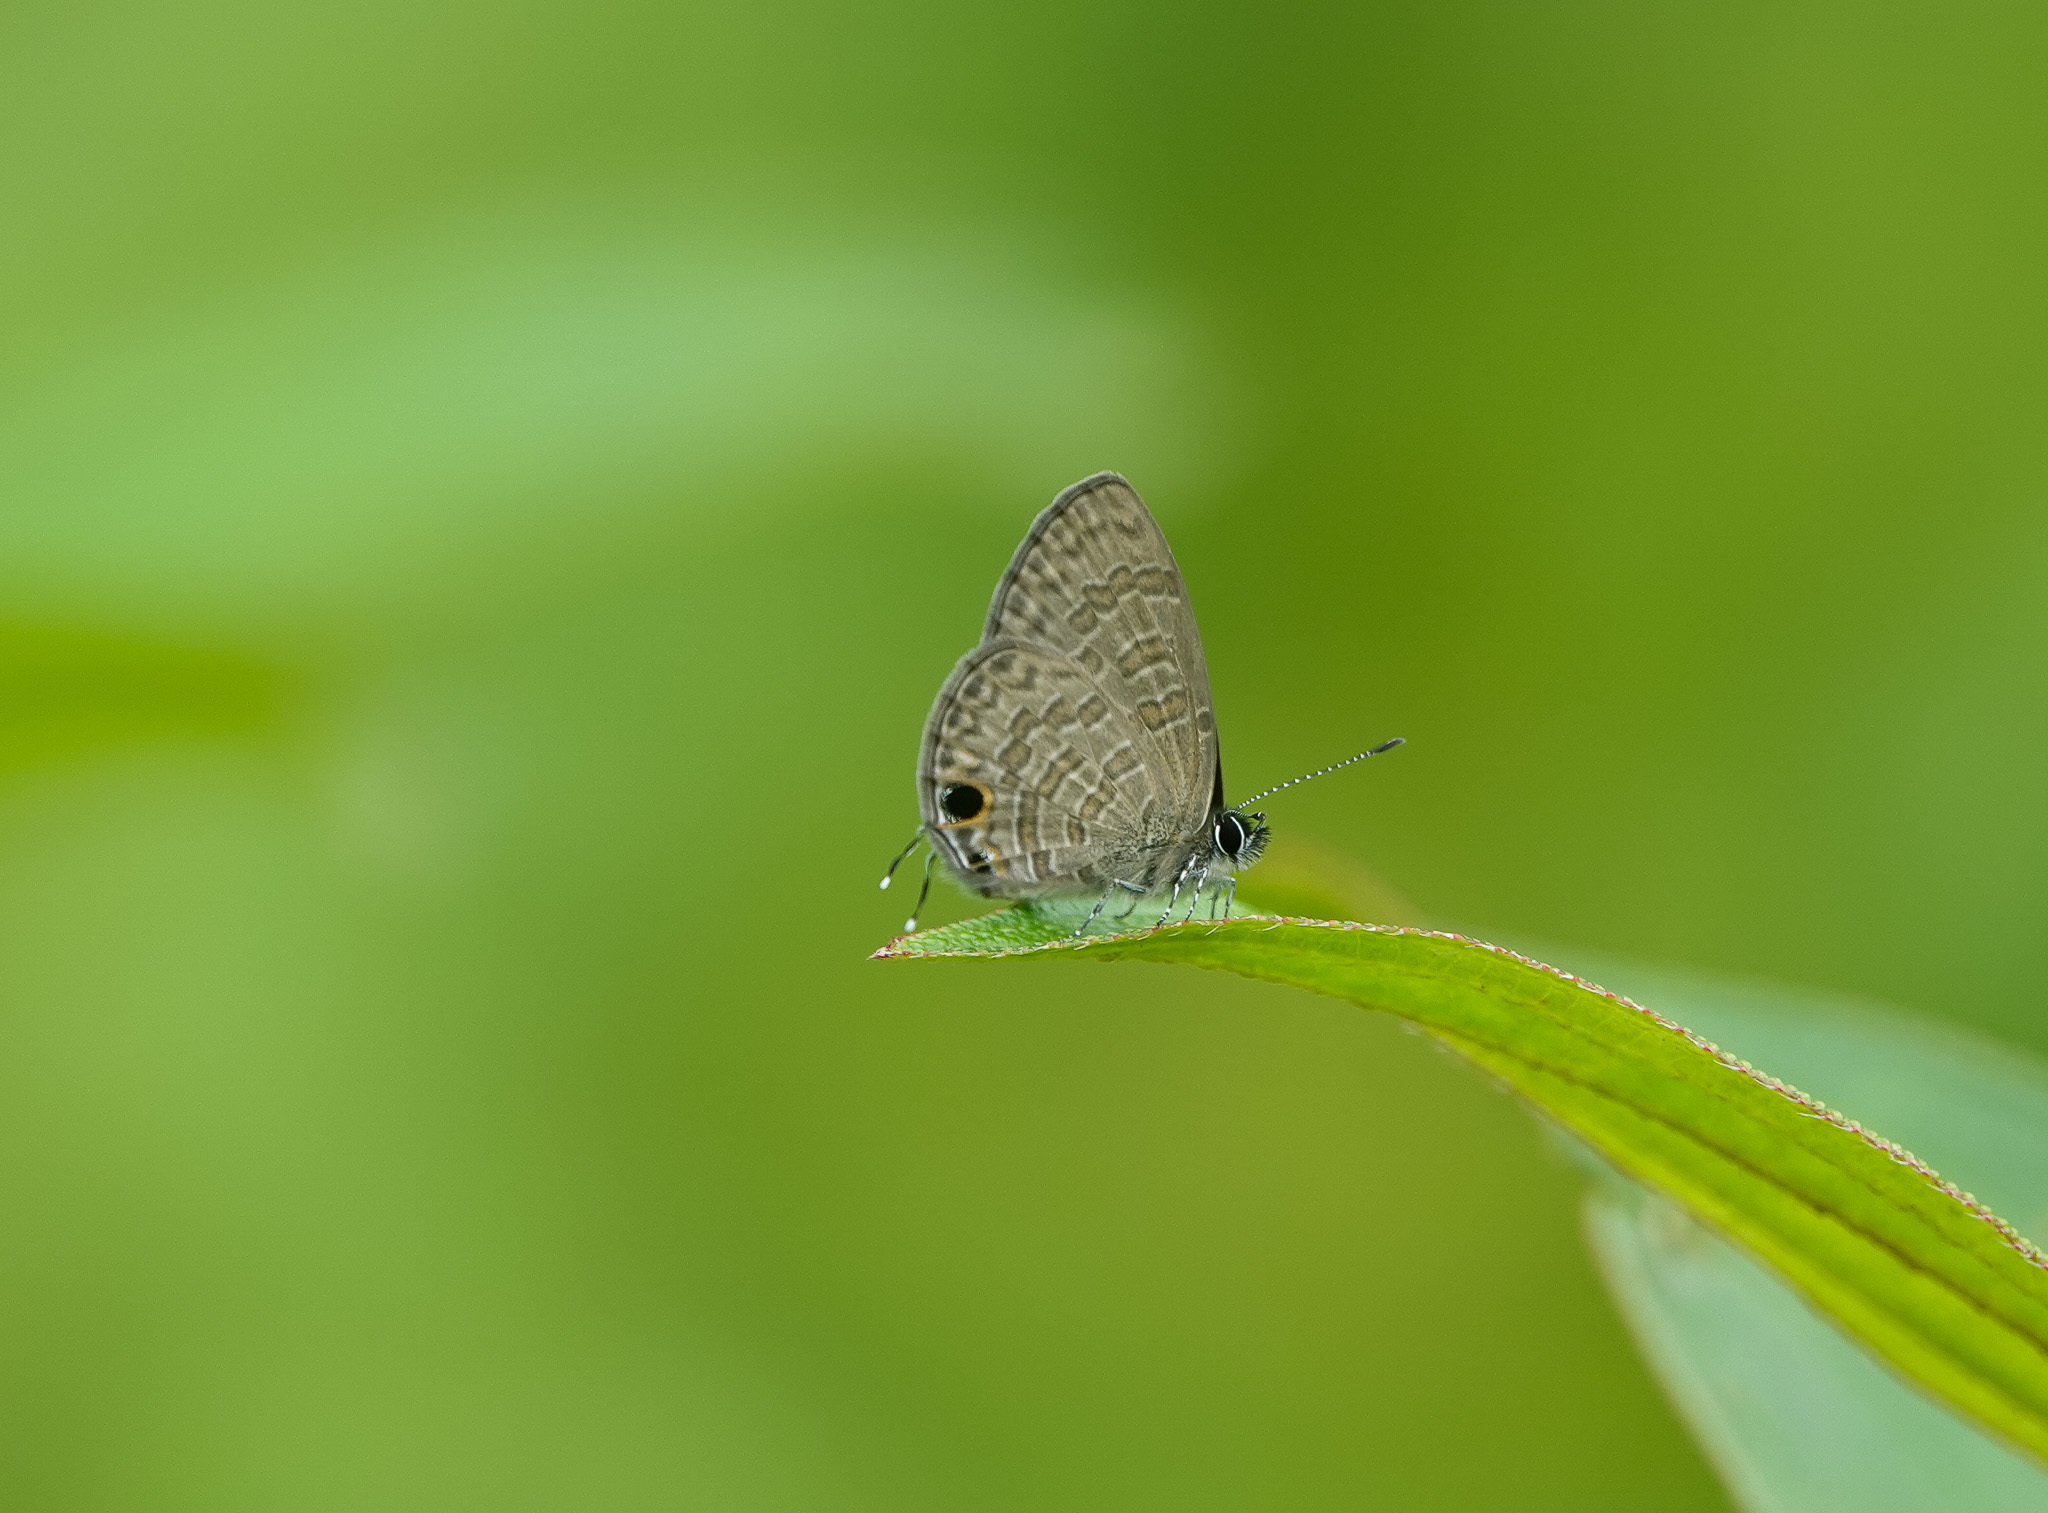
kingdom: Animalia
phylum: Arthropoda
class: Insecta
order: Lepidoptera
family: Lycaenidae
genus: Prosotas
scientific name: Prosotas nora
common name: Common line blue
